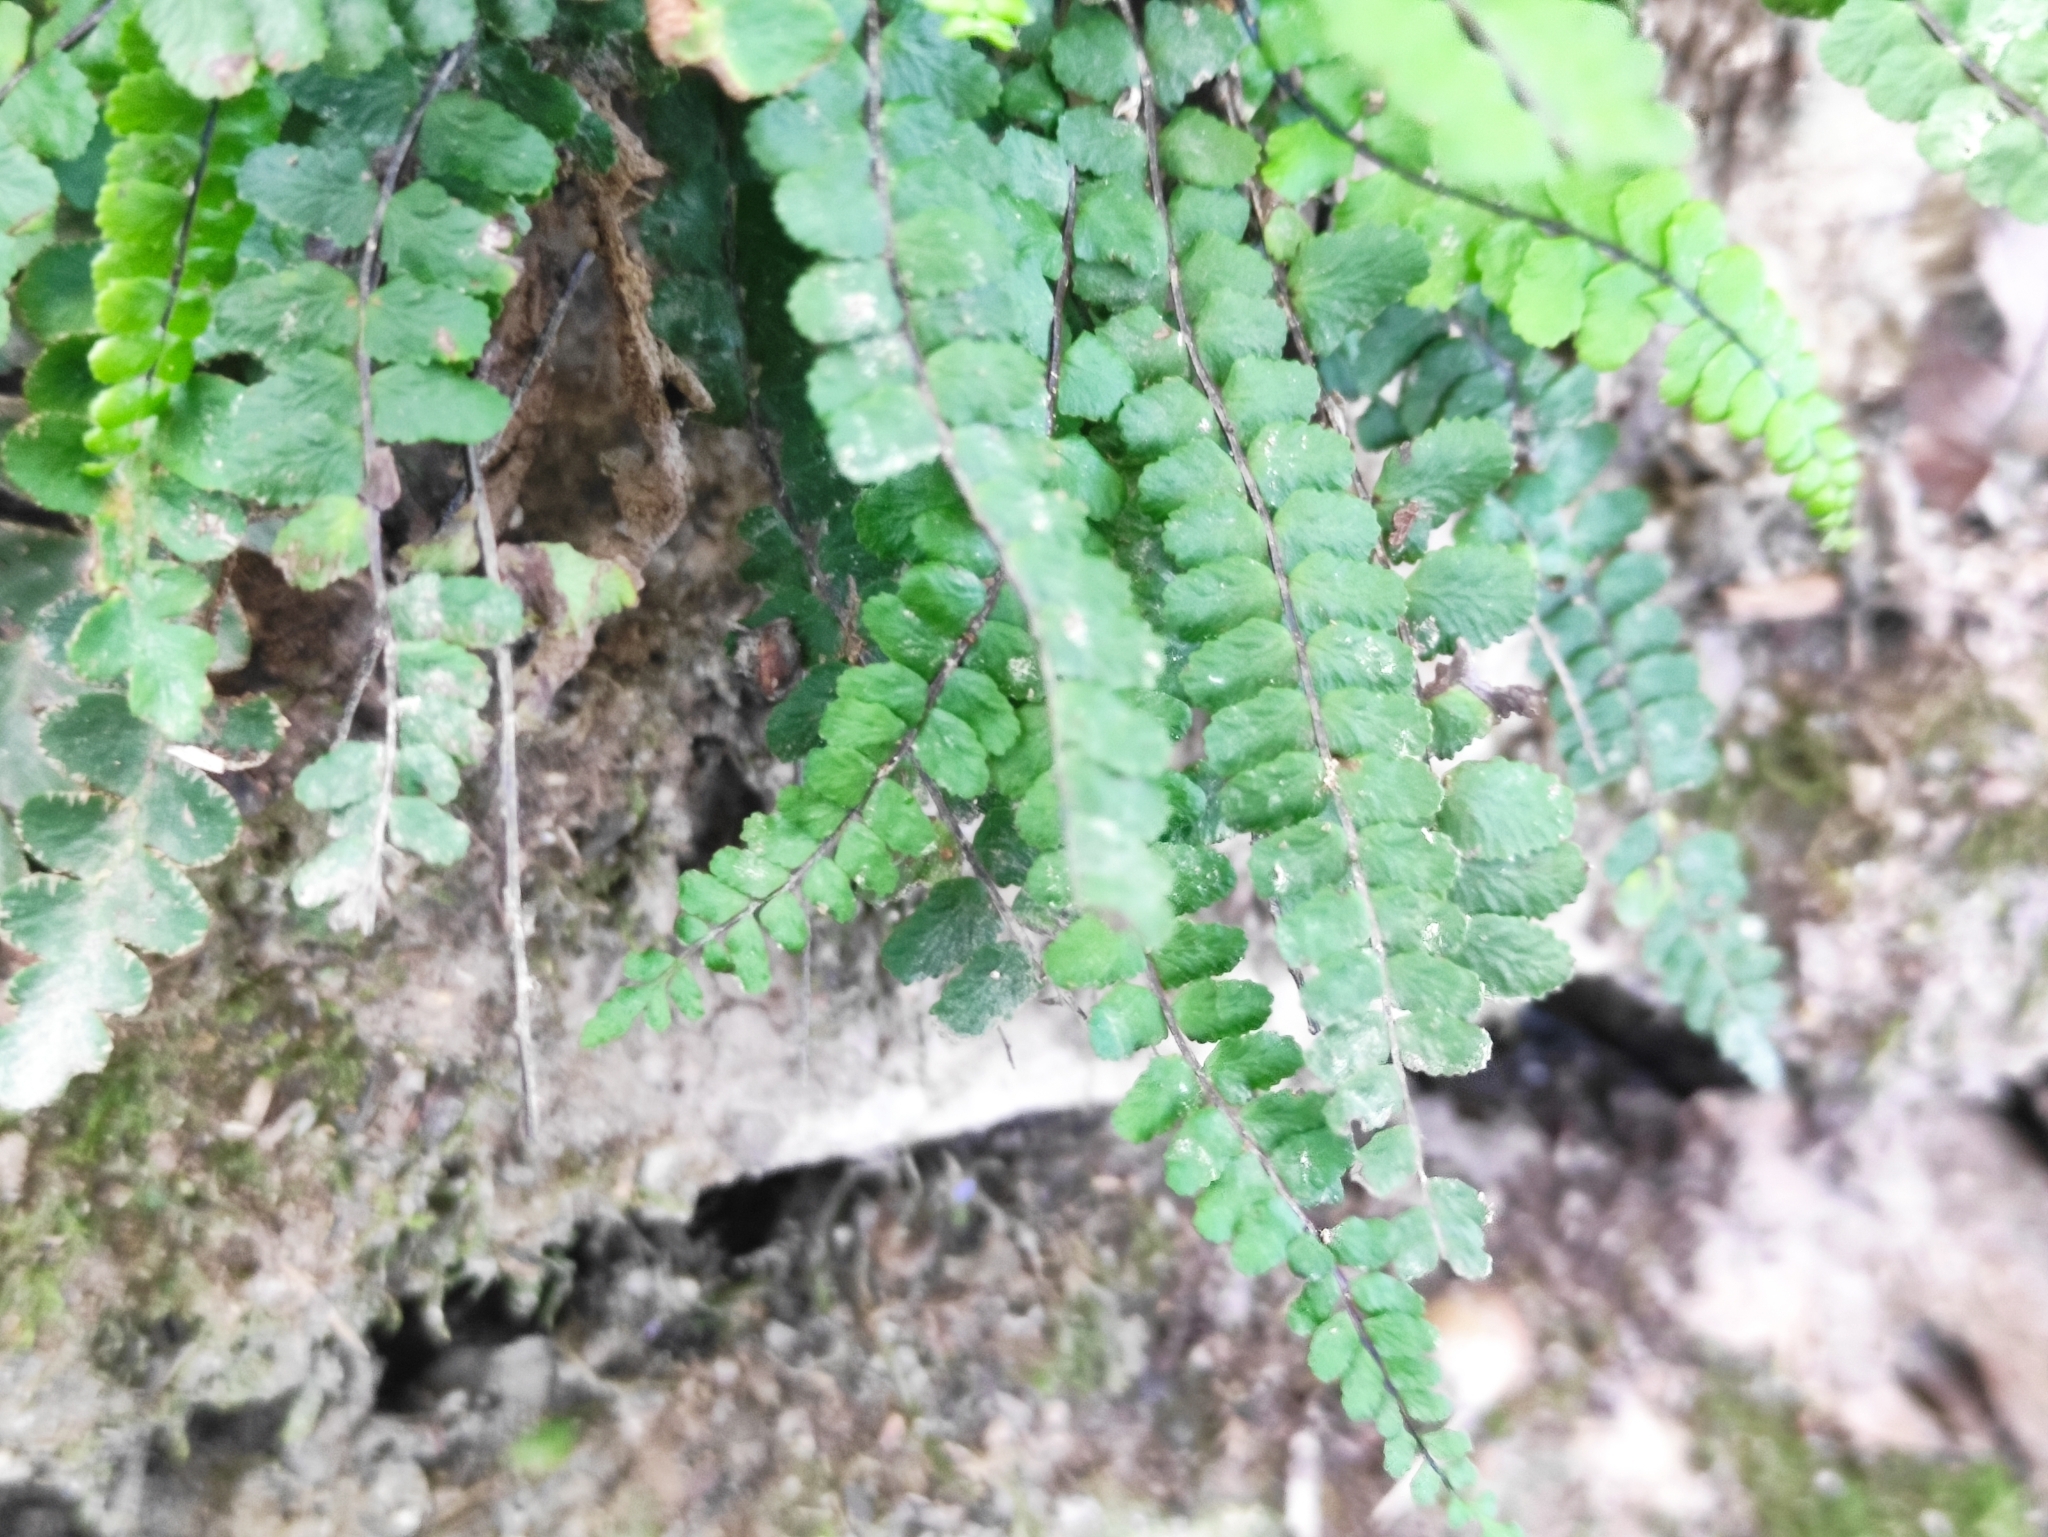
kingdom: Plantae
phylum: Tracheophyta
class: Polypodiopsida
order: Polypodiales
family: Aspleniaceae
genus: Asplenium
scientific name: Asplenium trichomanes
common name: Maidenhair spleenwort
